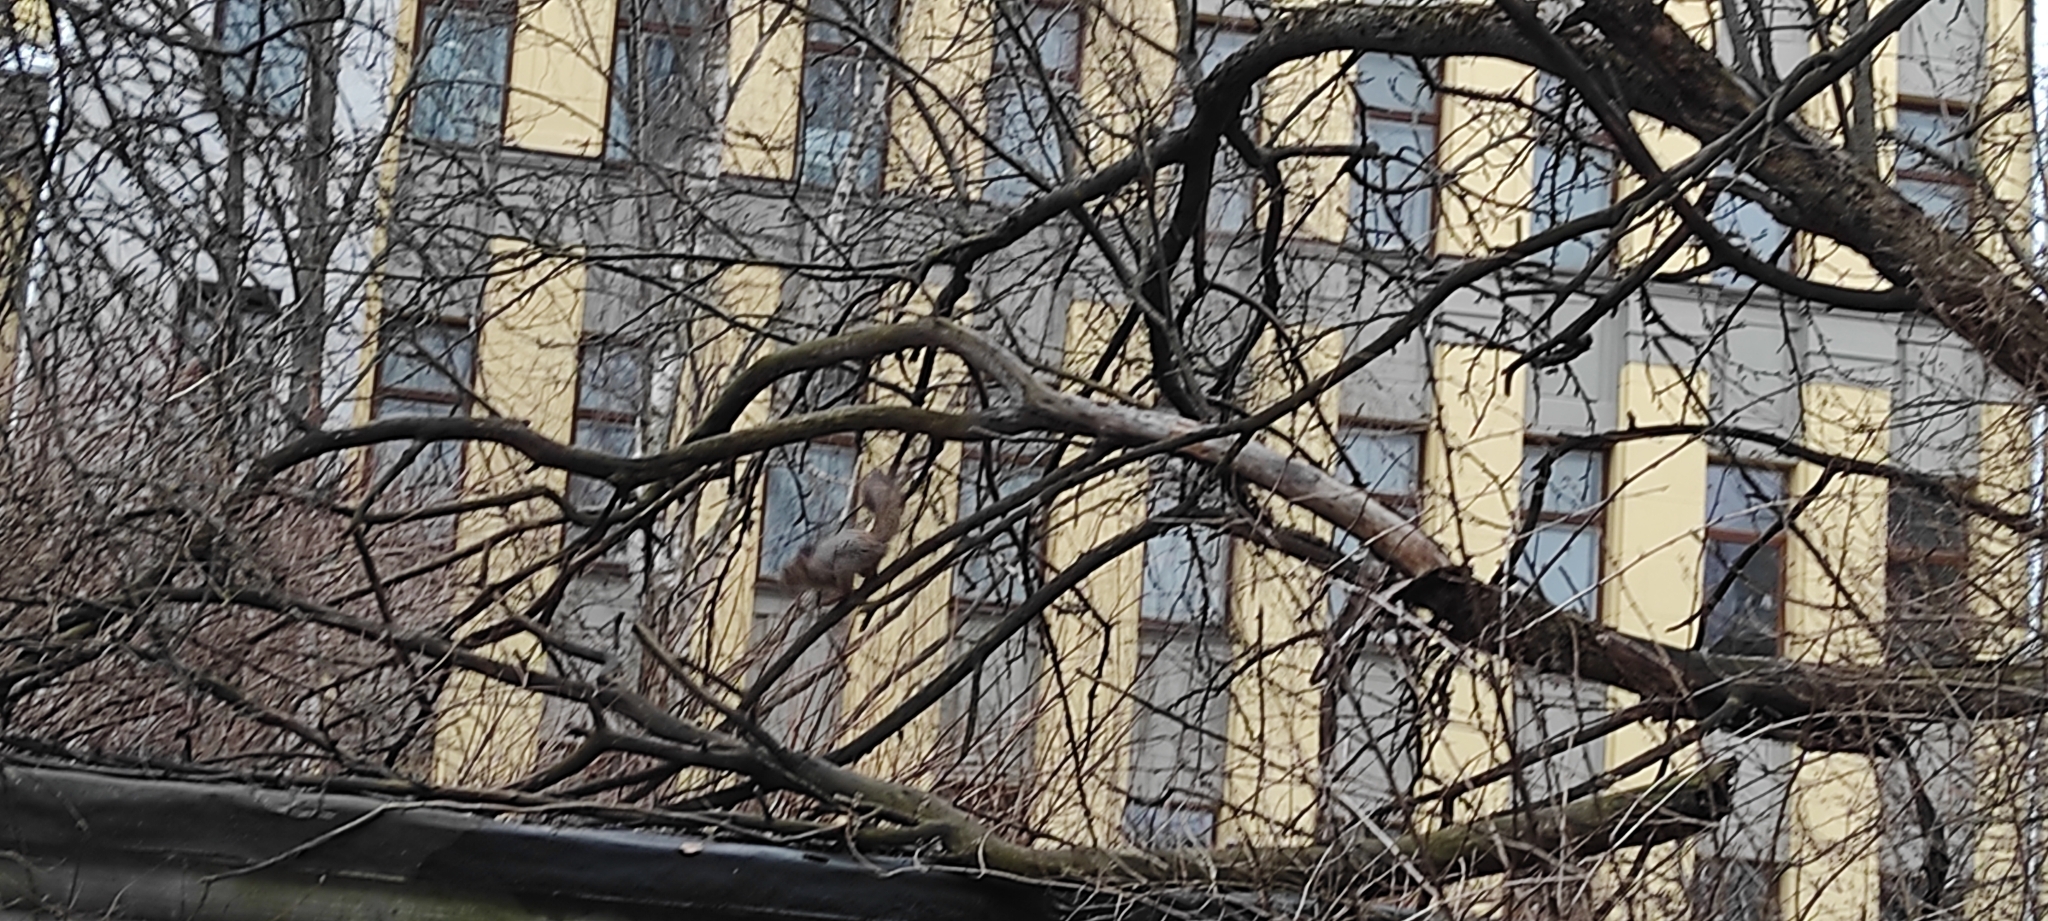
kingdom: Animalia
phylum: Chordata
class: Mammalia
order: Rodentia
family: Sciuridae
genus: Sciurus
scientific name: Sciurus vulgaris
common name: Eurasian red squirrel
